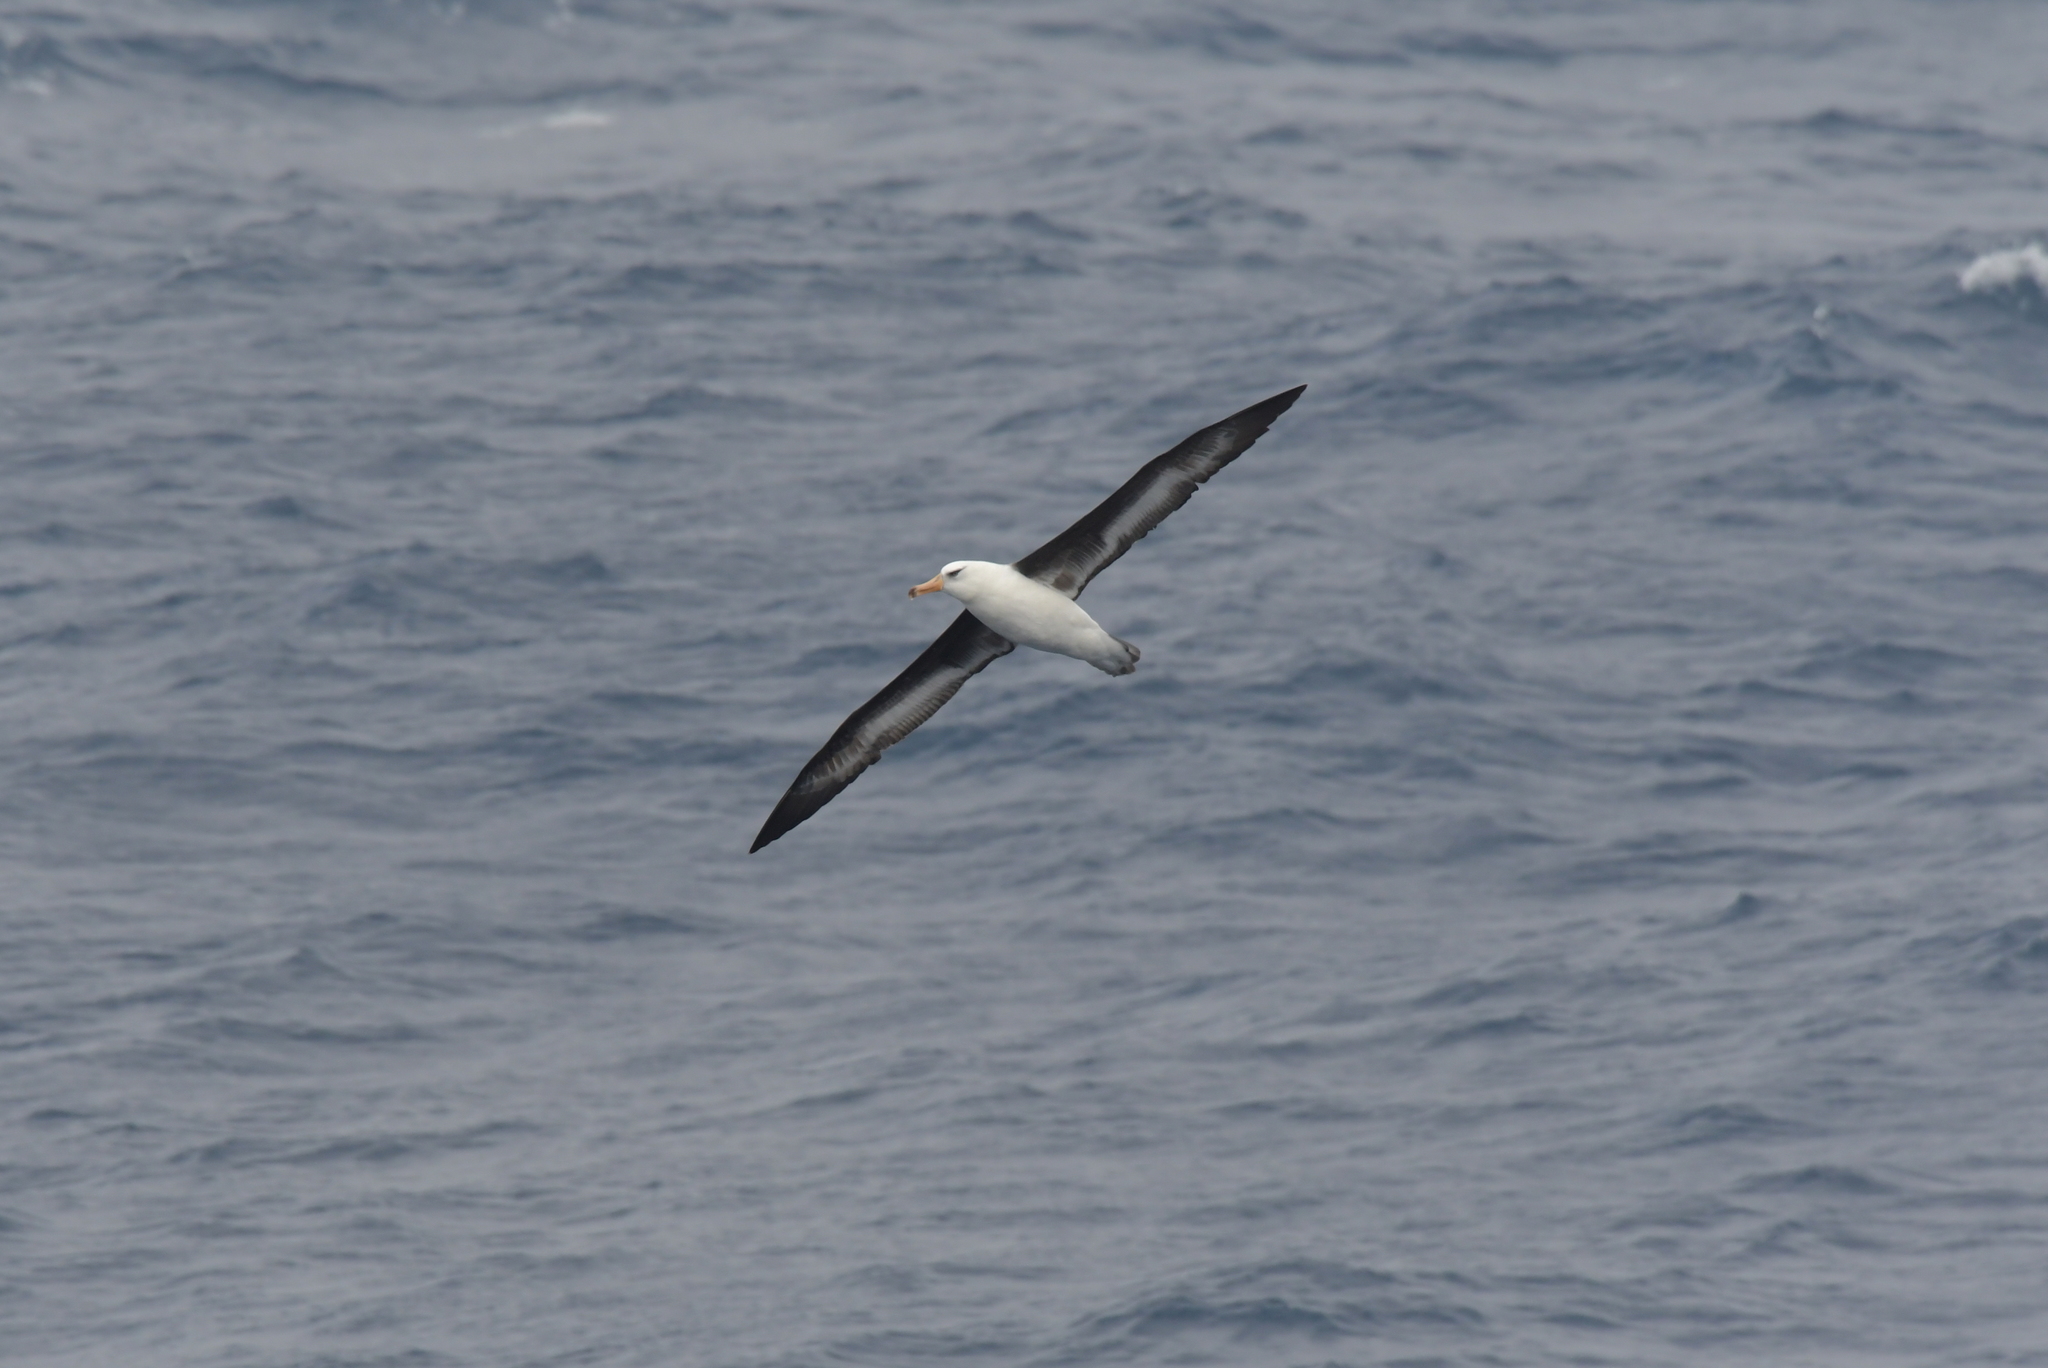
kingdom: Animalia
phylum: Chordata
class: Aves
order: Procellariiformes
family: Diomedeidae
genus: Thalassarche
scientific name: Thalassarche impavida
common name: Campbell albatross
